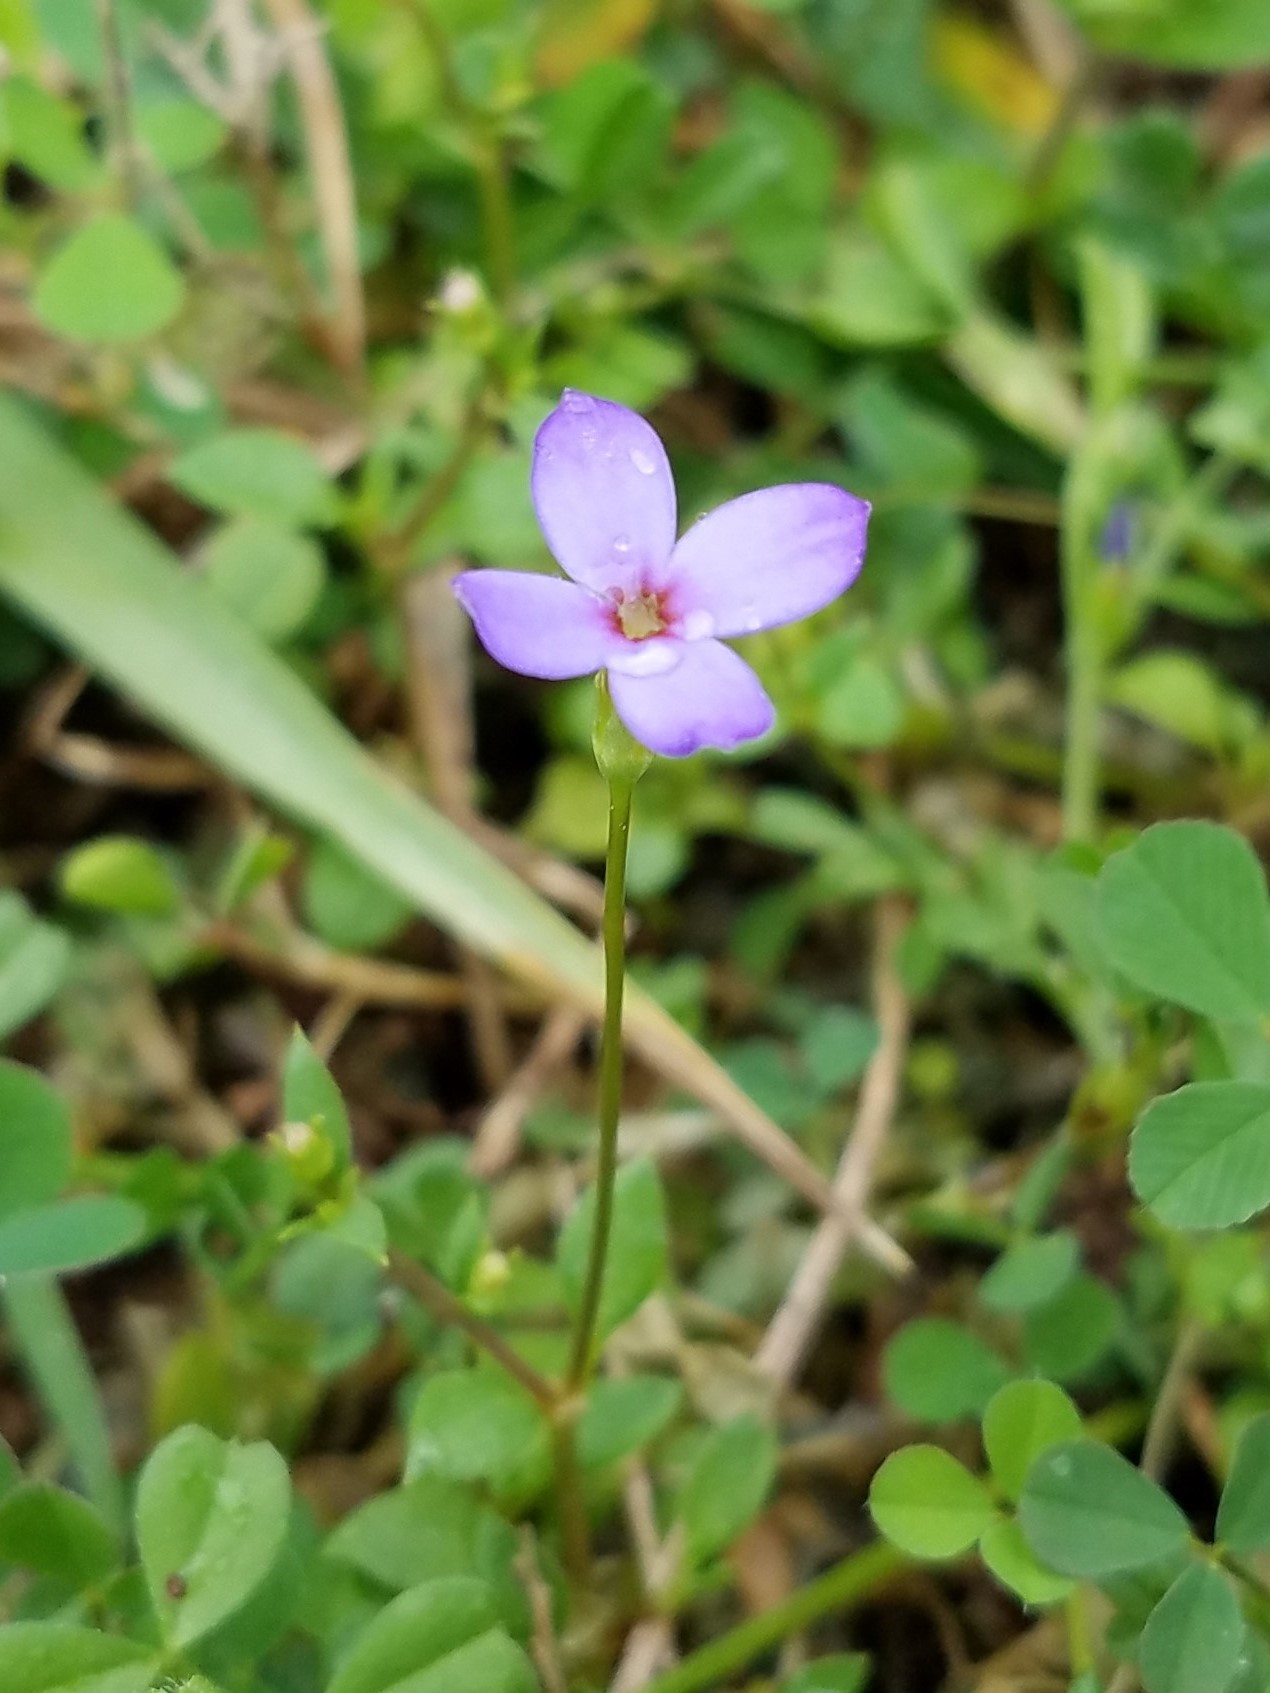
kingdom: Plantae
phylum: Tracheophyta
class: Magnoliopsida
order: Gentianales
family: Rubiaceae
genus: Houstonia
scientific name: Houstonia pusilla
